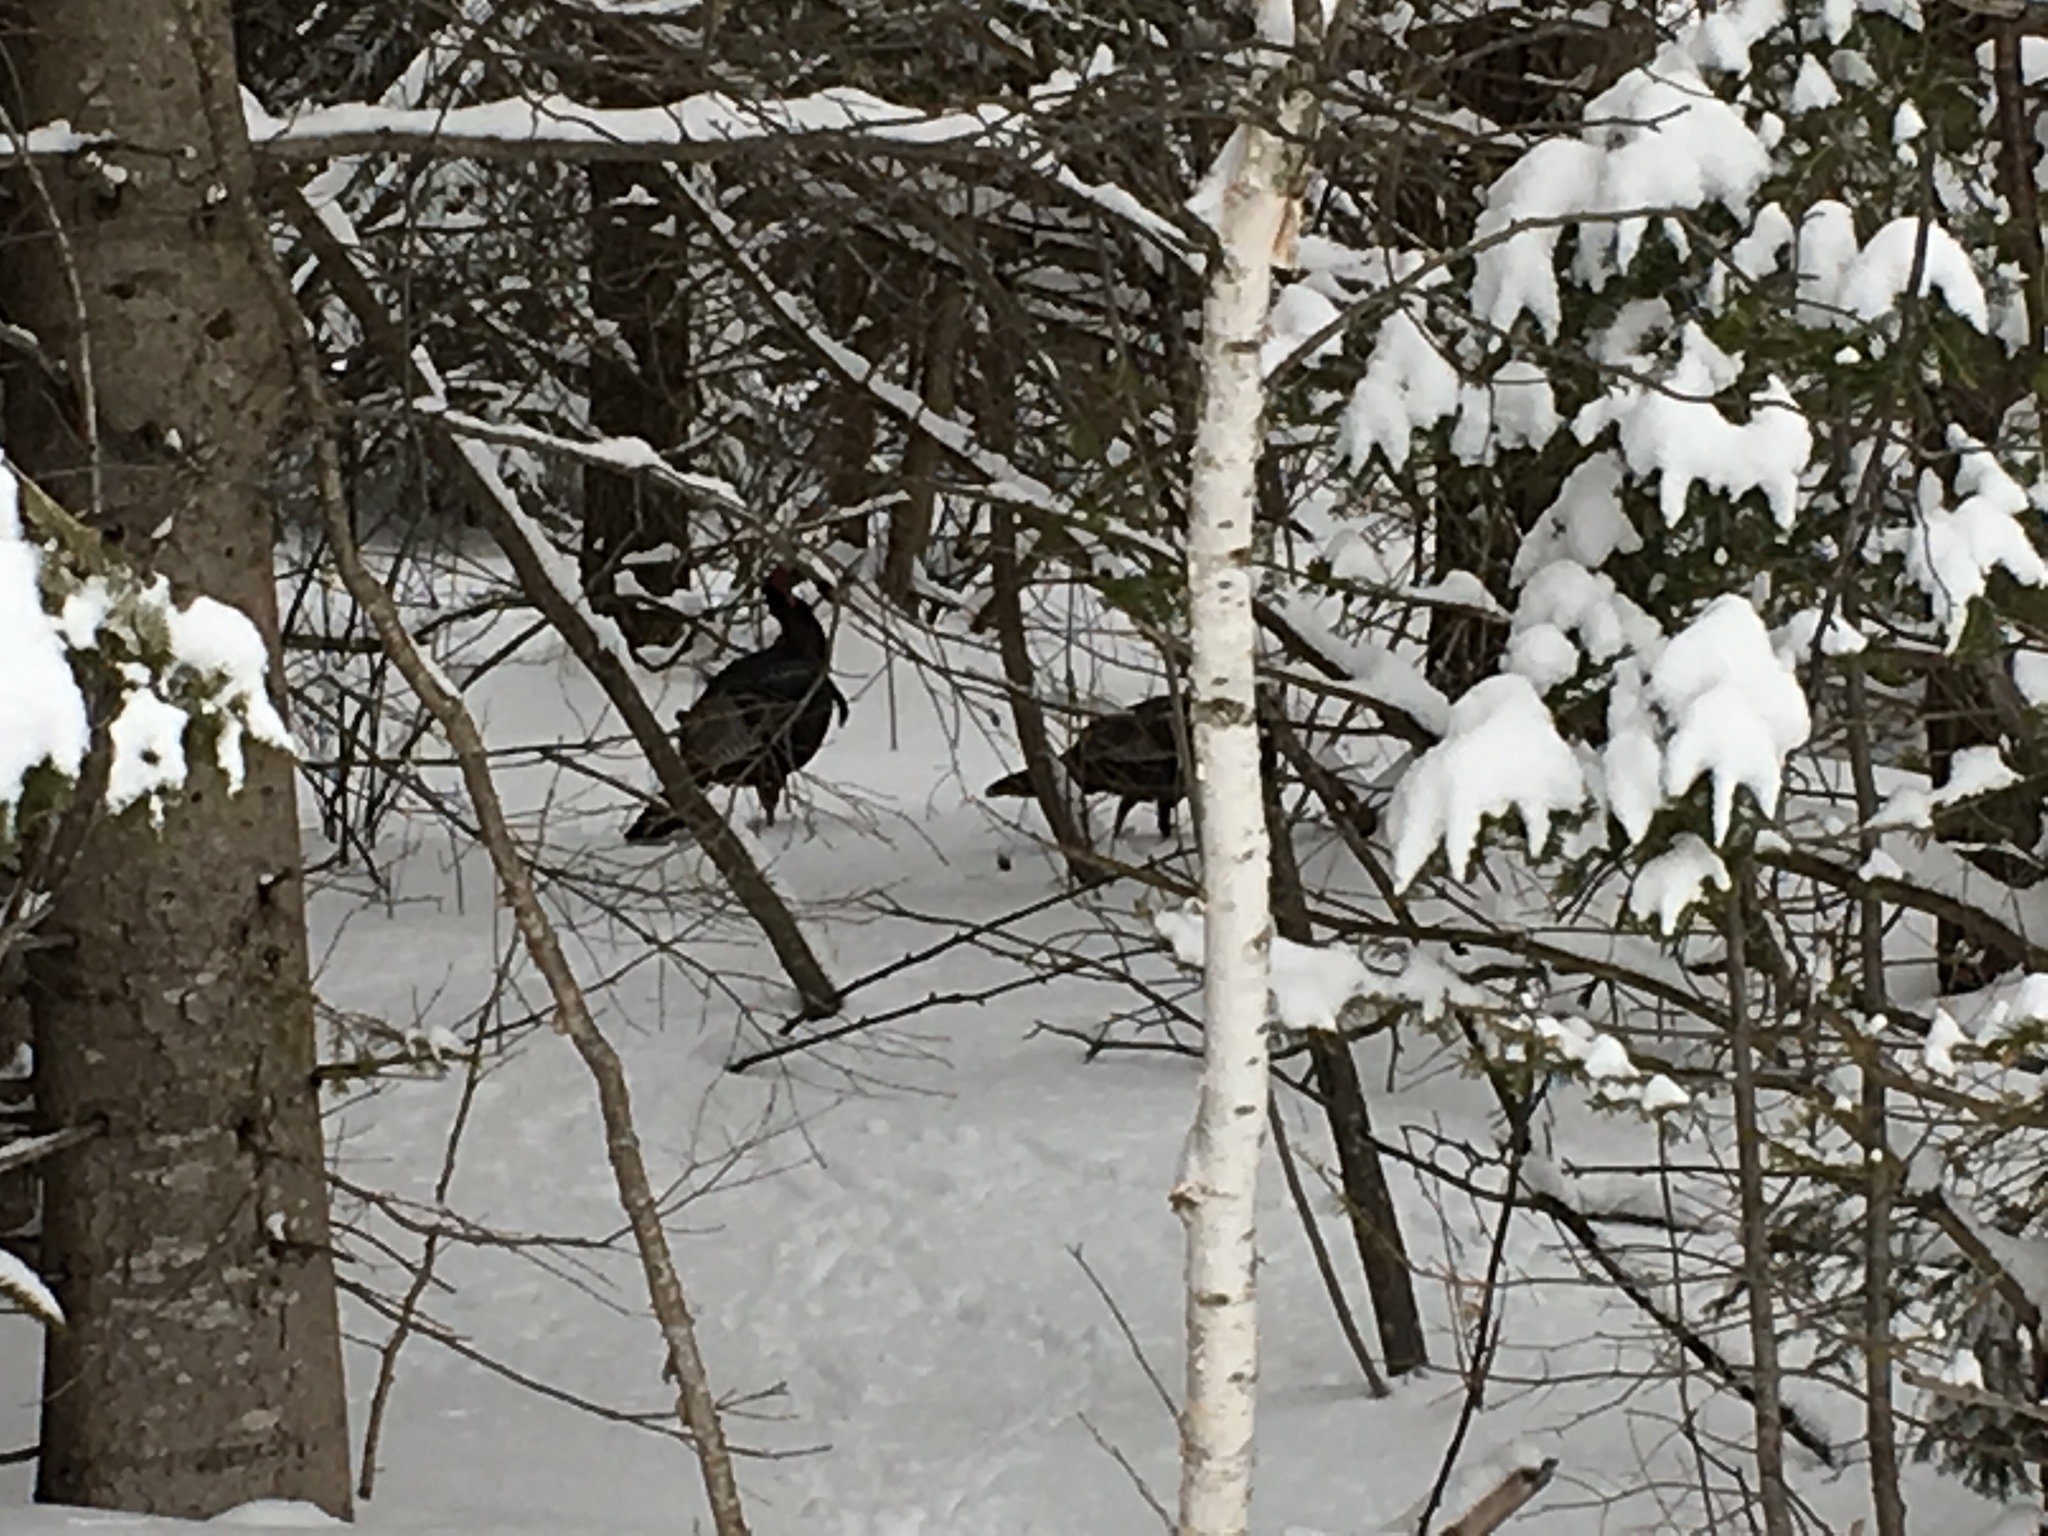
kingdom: Animalia
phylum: Chordata
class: Aves
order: Galliformes
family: Phasianidae
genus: Meleagris
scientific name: Meleagris gallopavo
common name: Wild turkey
